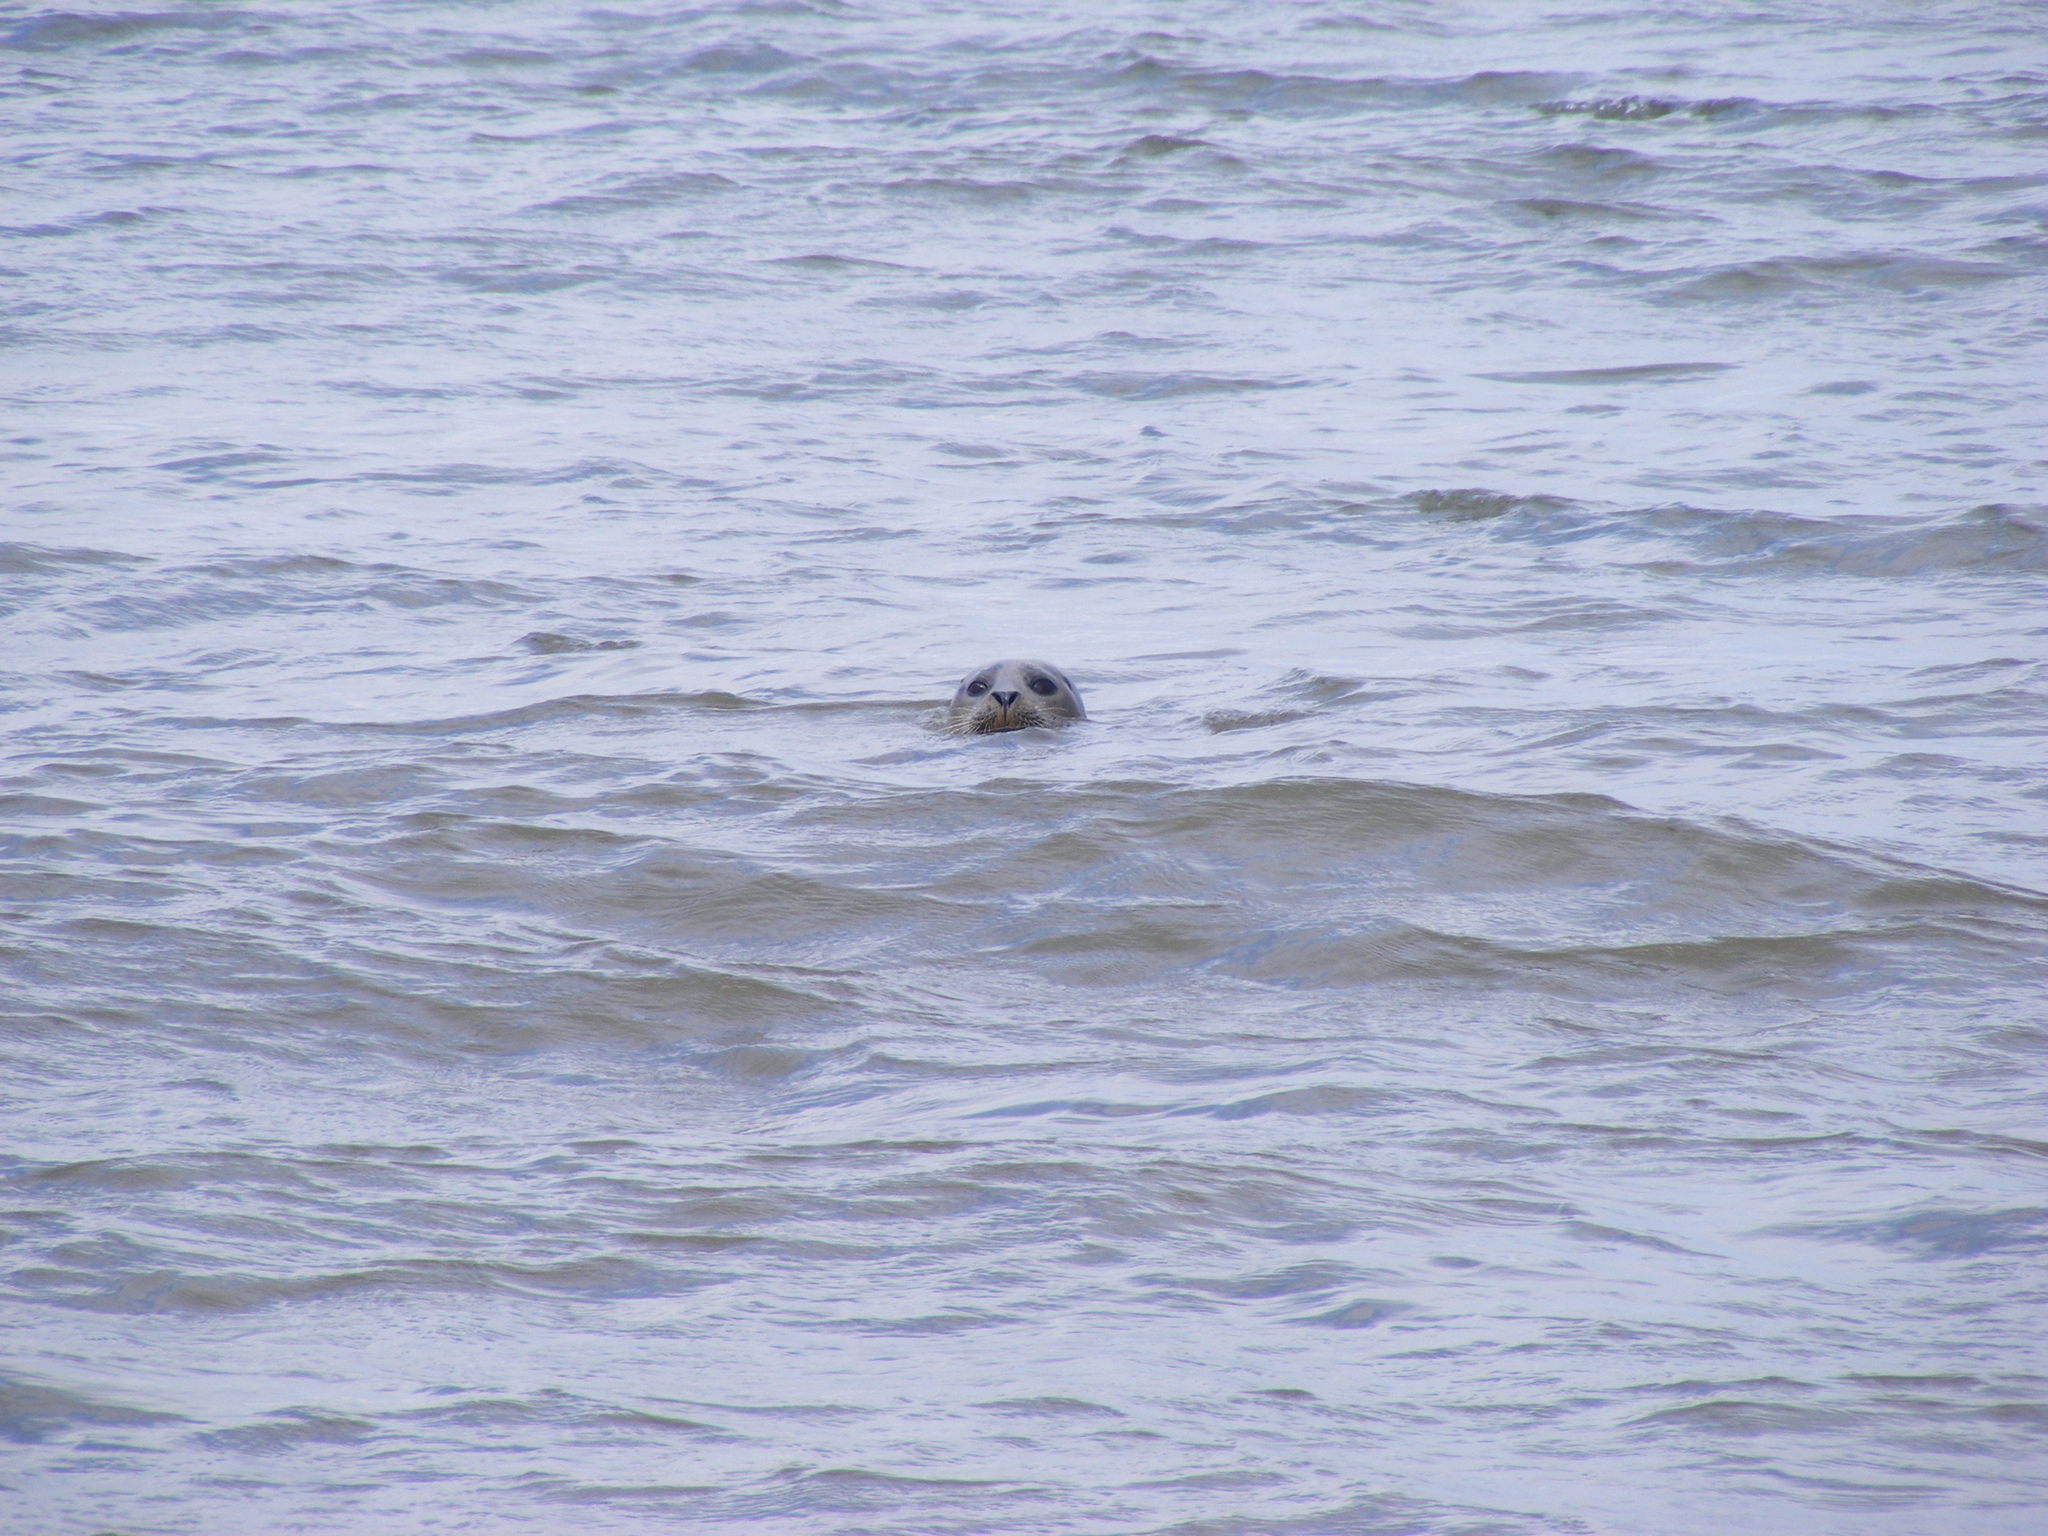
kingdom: Animalia
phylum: Chordata
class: Mammalia
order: Carnivora
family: Phocidae
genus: Phoca
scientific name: Phoca vitulina
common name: Harbor seal
